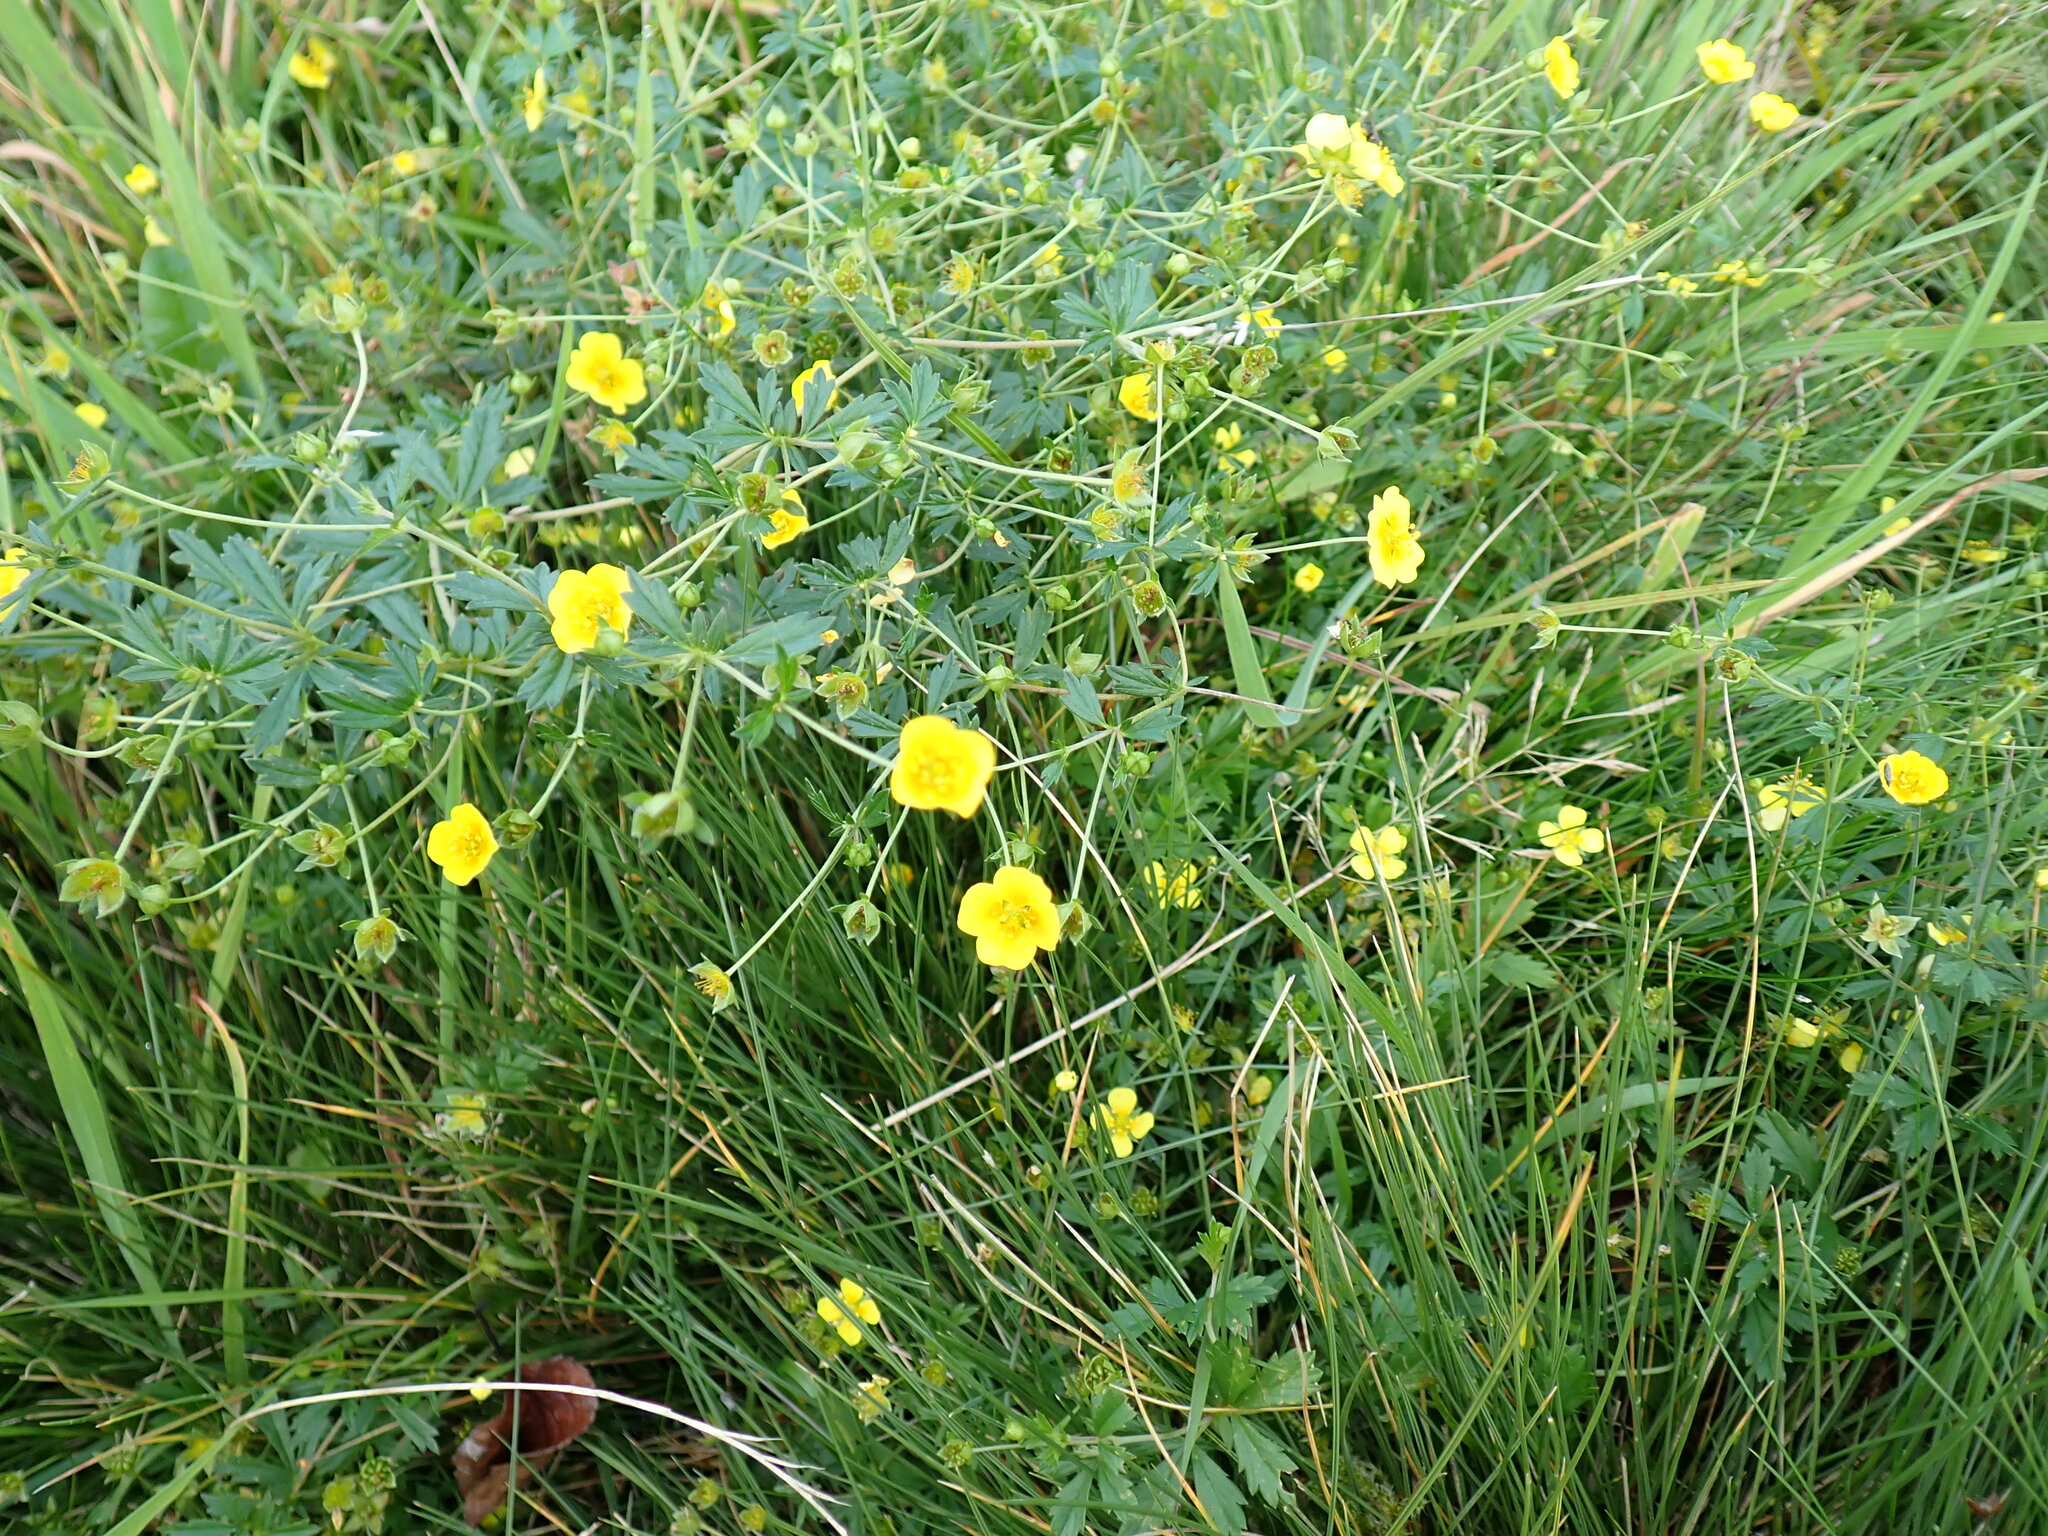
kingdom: Plantae
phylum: Tracheophyta
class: Magnoliopsida
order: Rosales
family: Rosaceae
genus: Potentilla
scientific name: Potentilla erecta
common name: Tormentil
